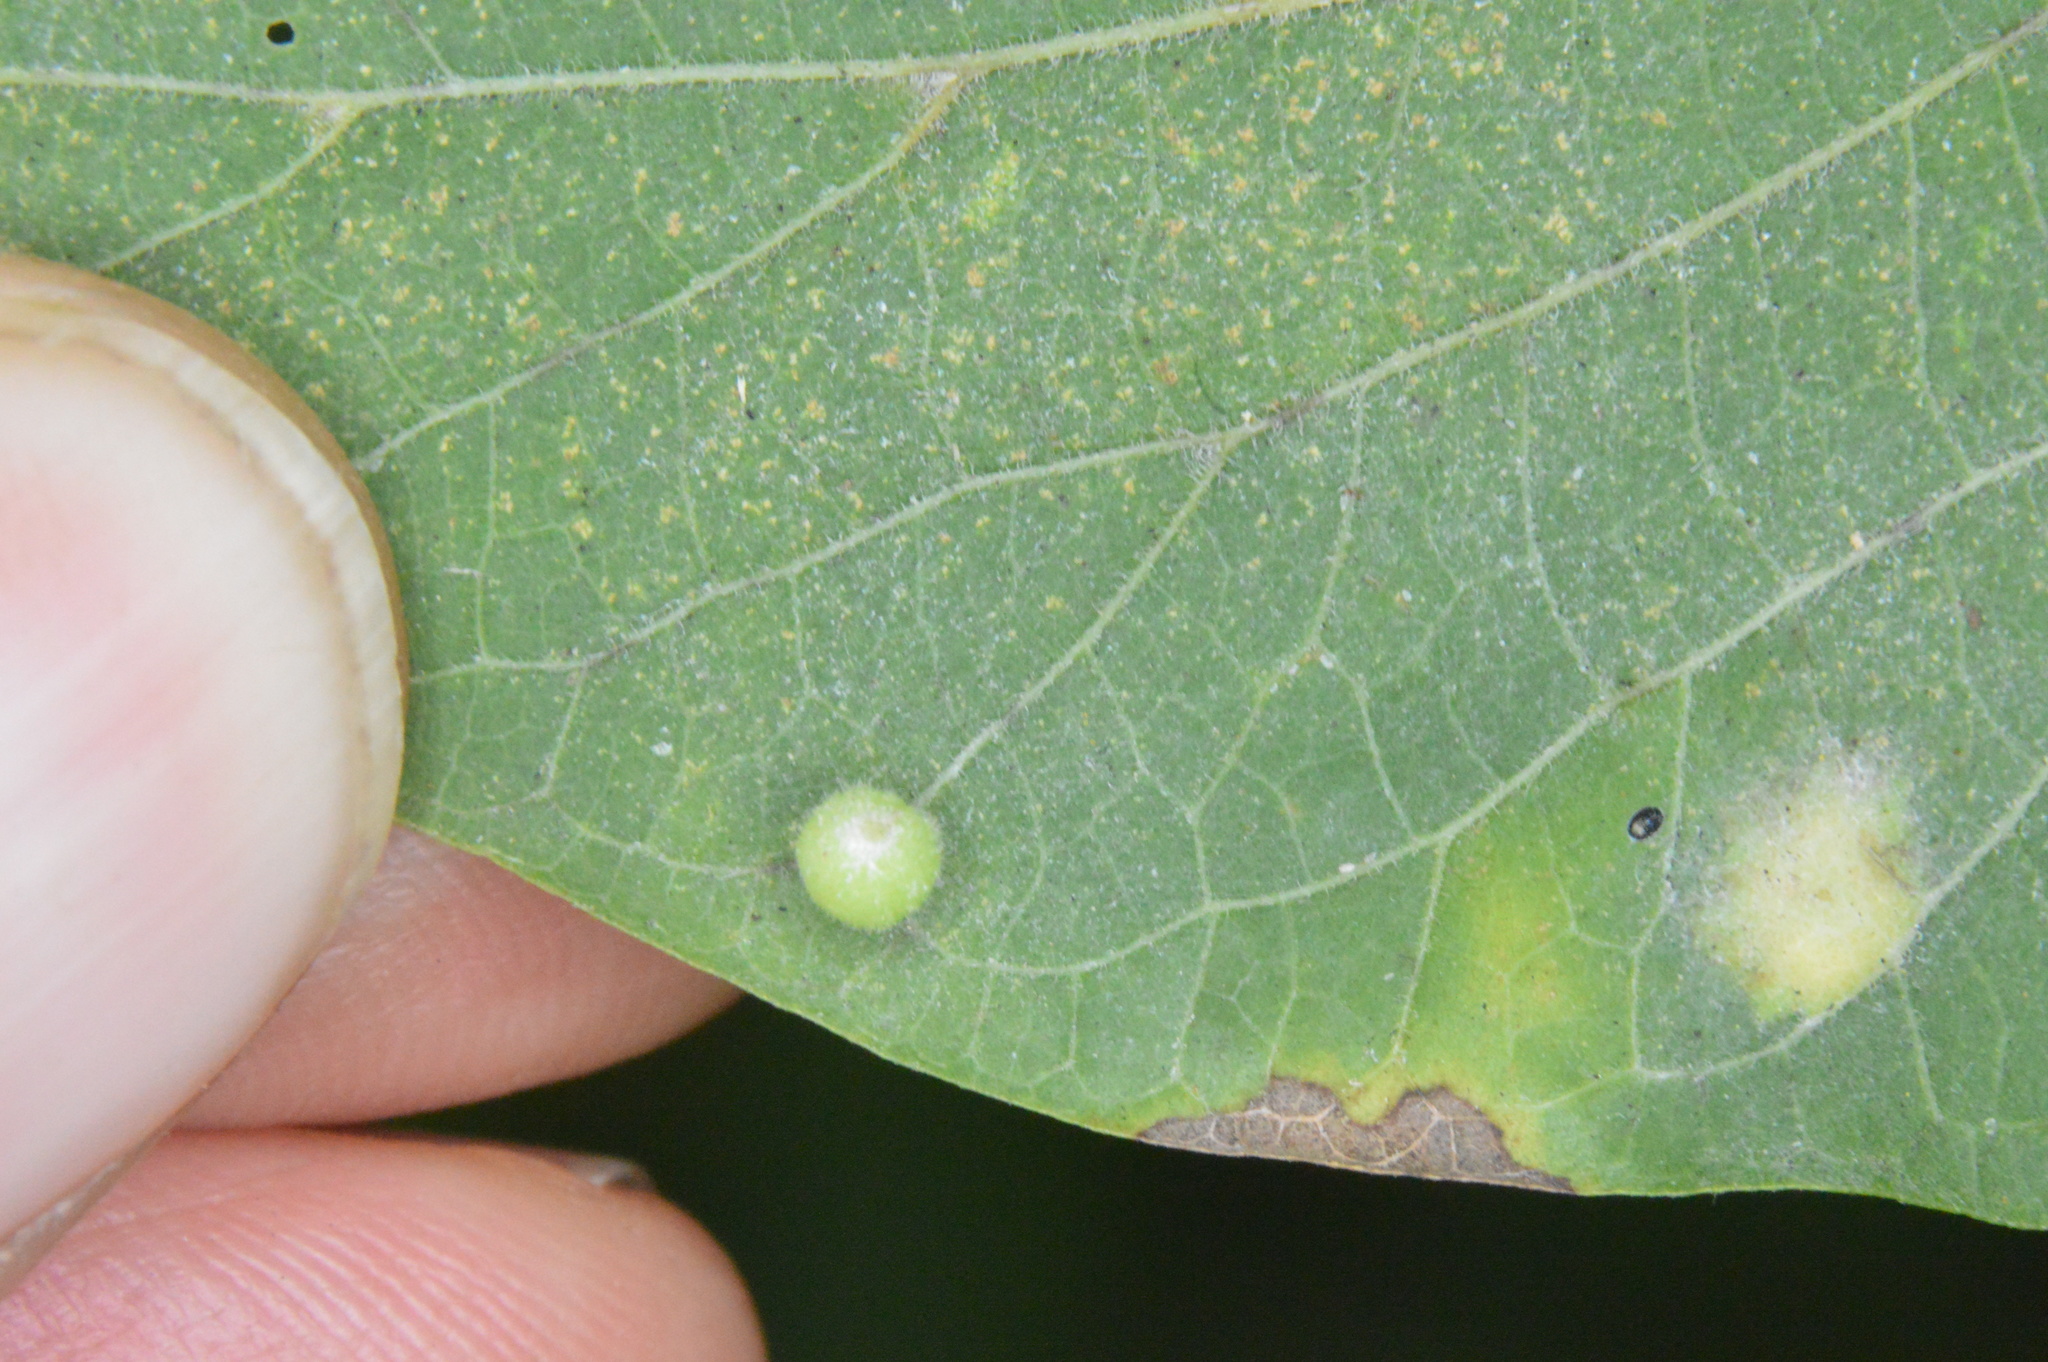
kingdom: Animalia
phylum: Arthropoda
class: Insecta
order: Diptera
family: Cecidomyiidae
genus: Celticecis
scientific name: Celticecis globosa
